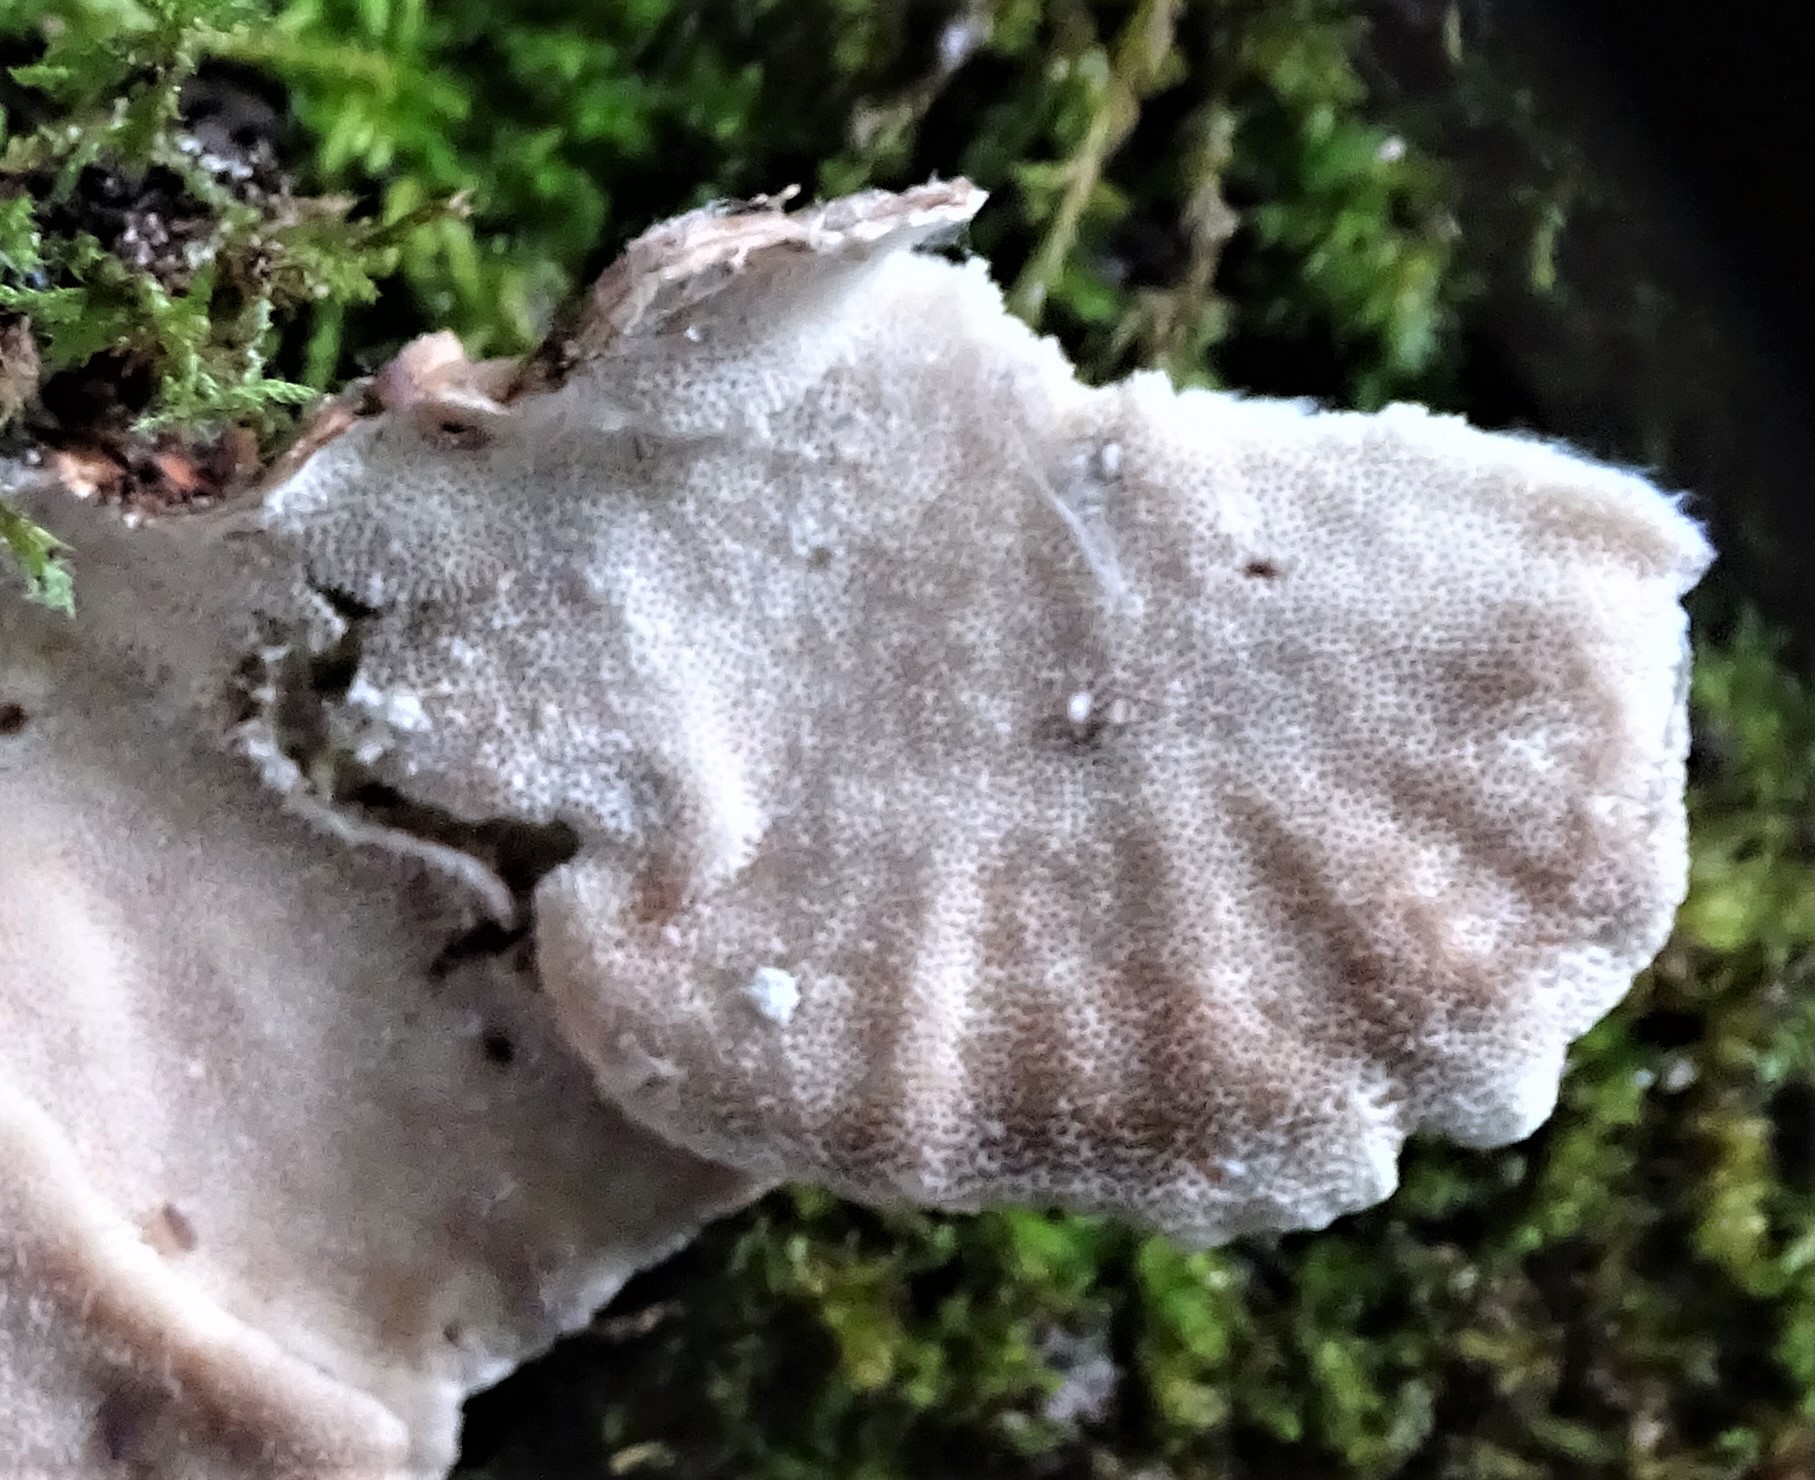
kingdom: Fungi
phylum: Basidiomycota
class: Agaricomycetes
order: Polyporales
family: Polyporaceae
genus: Trametes
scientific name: Trametes versicolor
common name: Turkeytail
